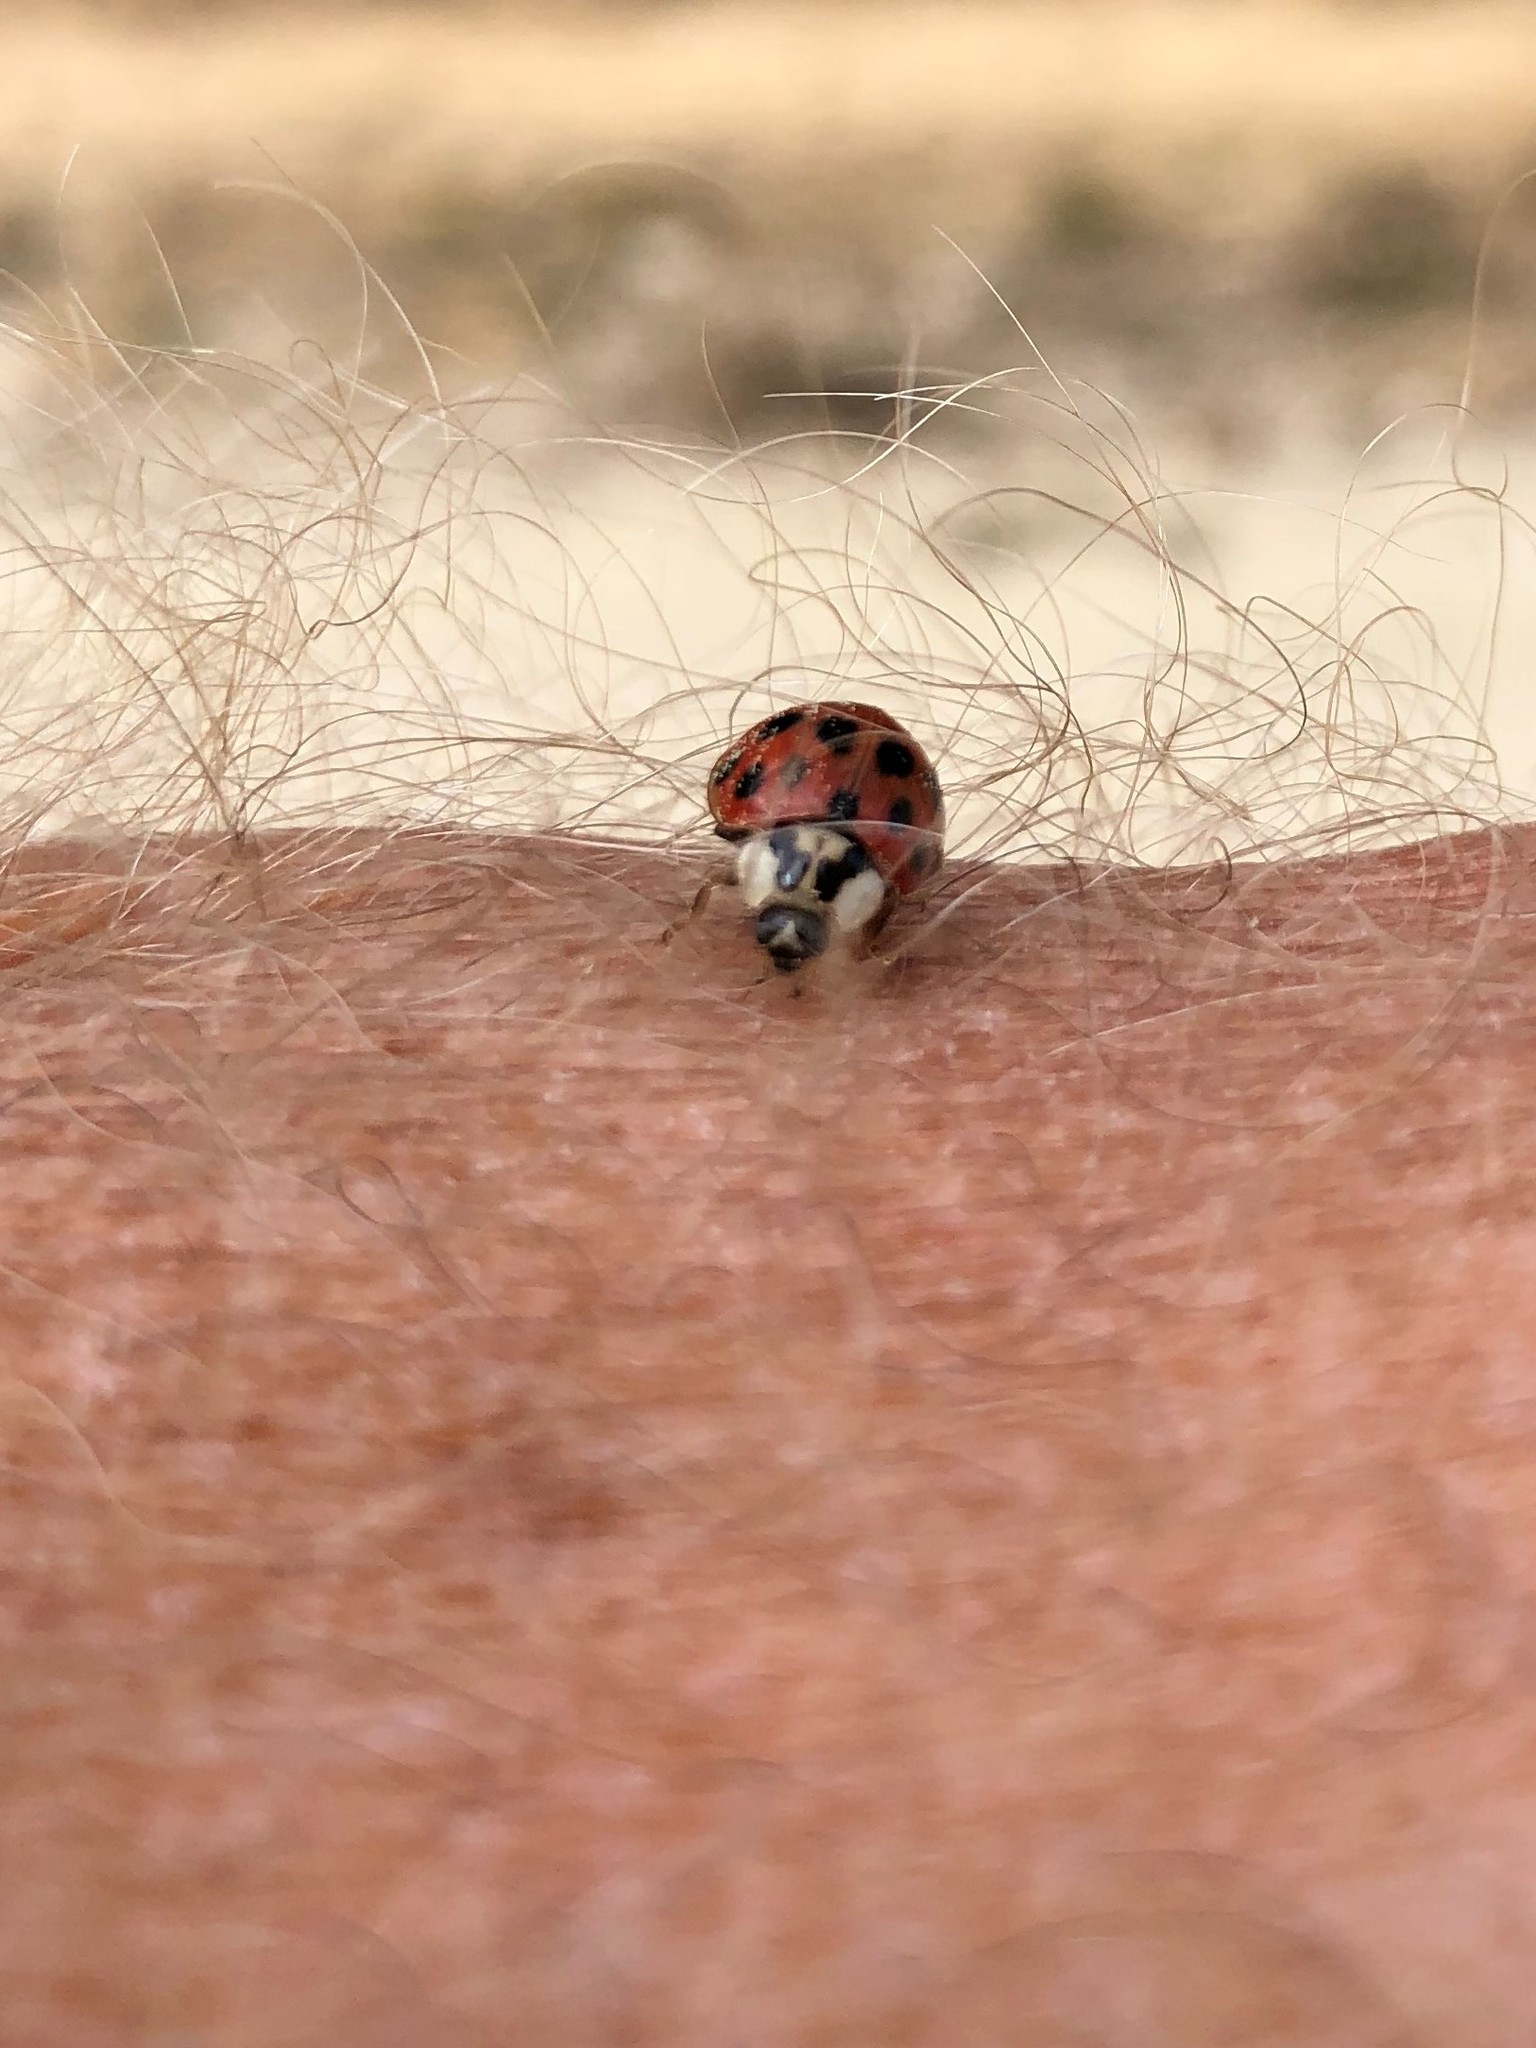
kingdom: Animalia
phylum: Arthropoda
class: Insecta
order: Coleoptera
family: Coccinellidae
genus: Harmonia
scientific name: Harmonia axyridis
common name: Harlequin ladybird
